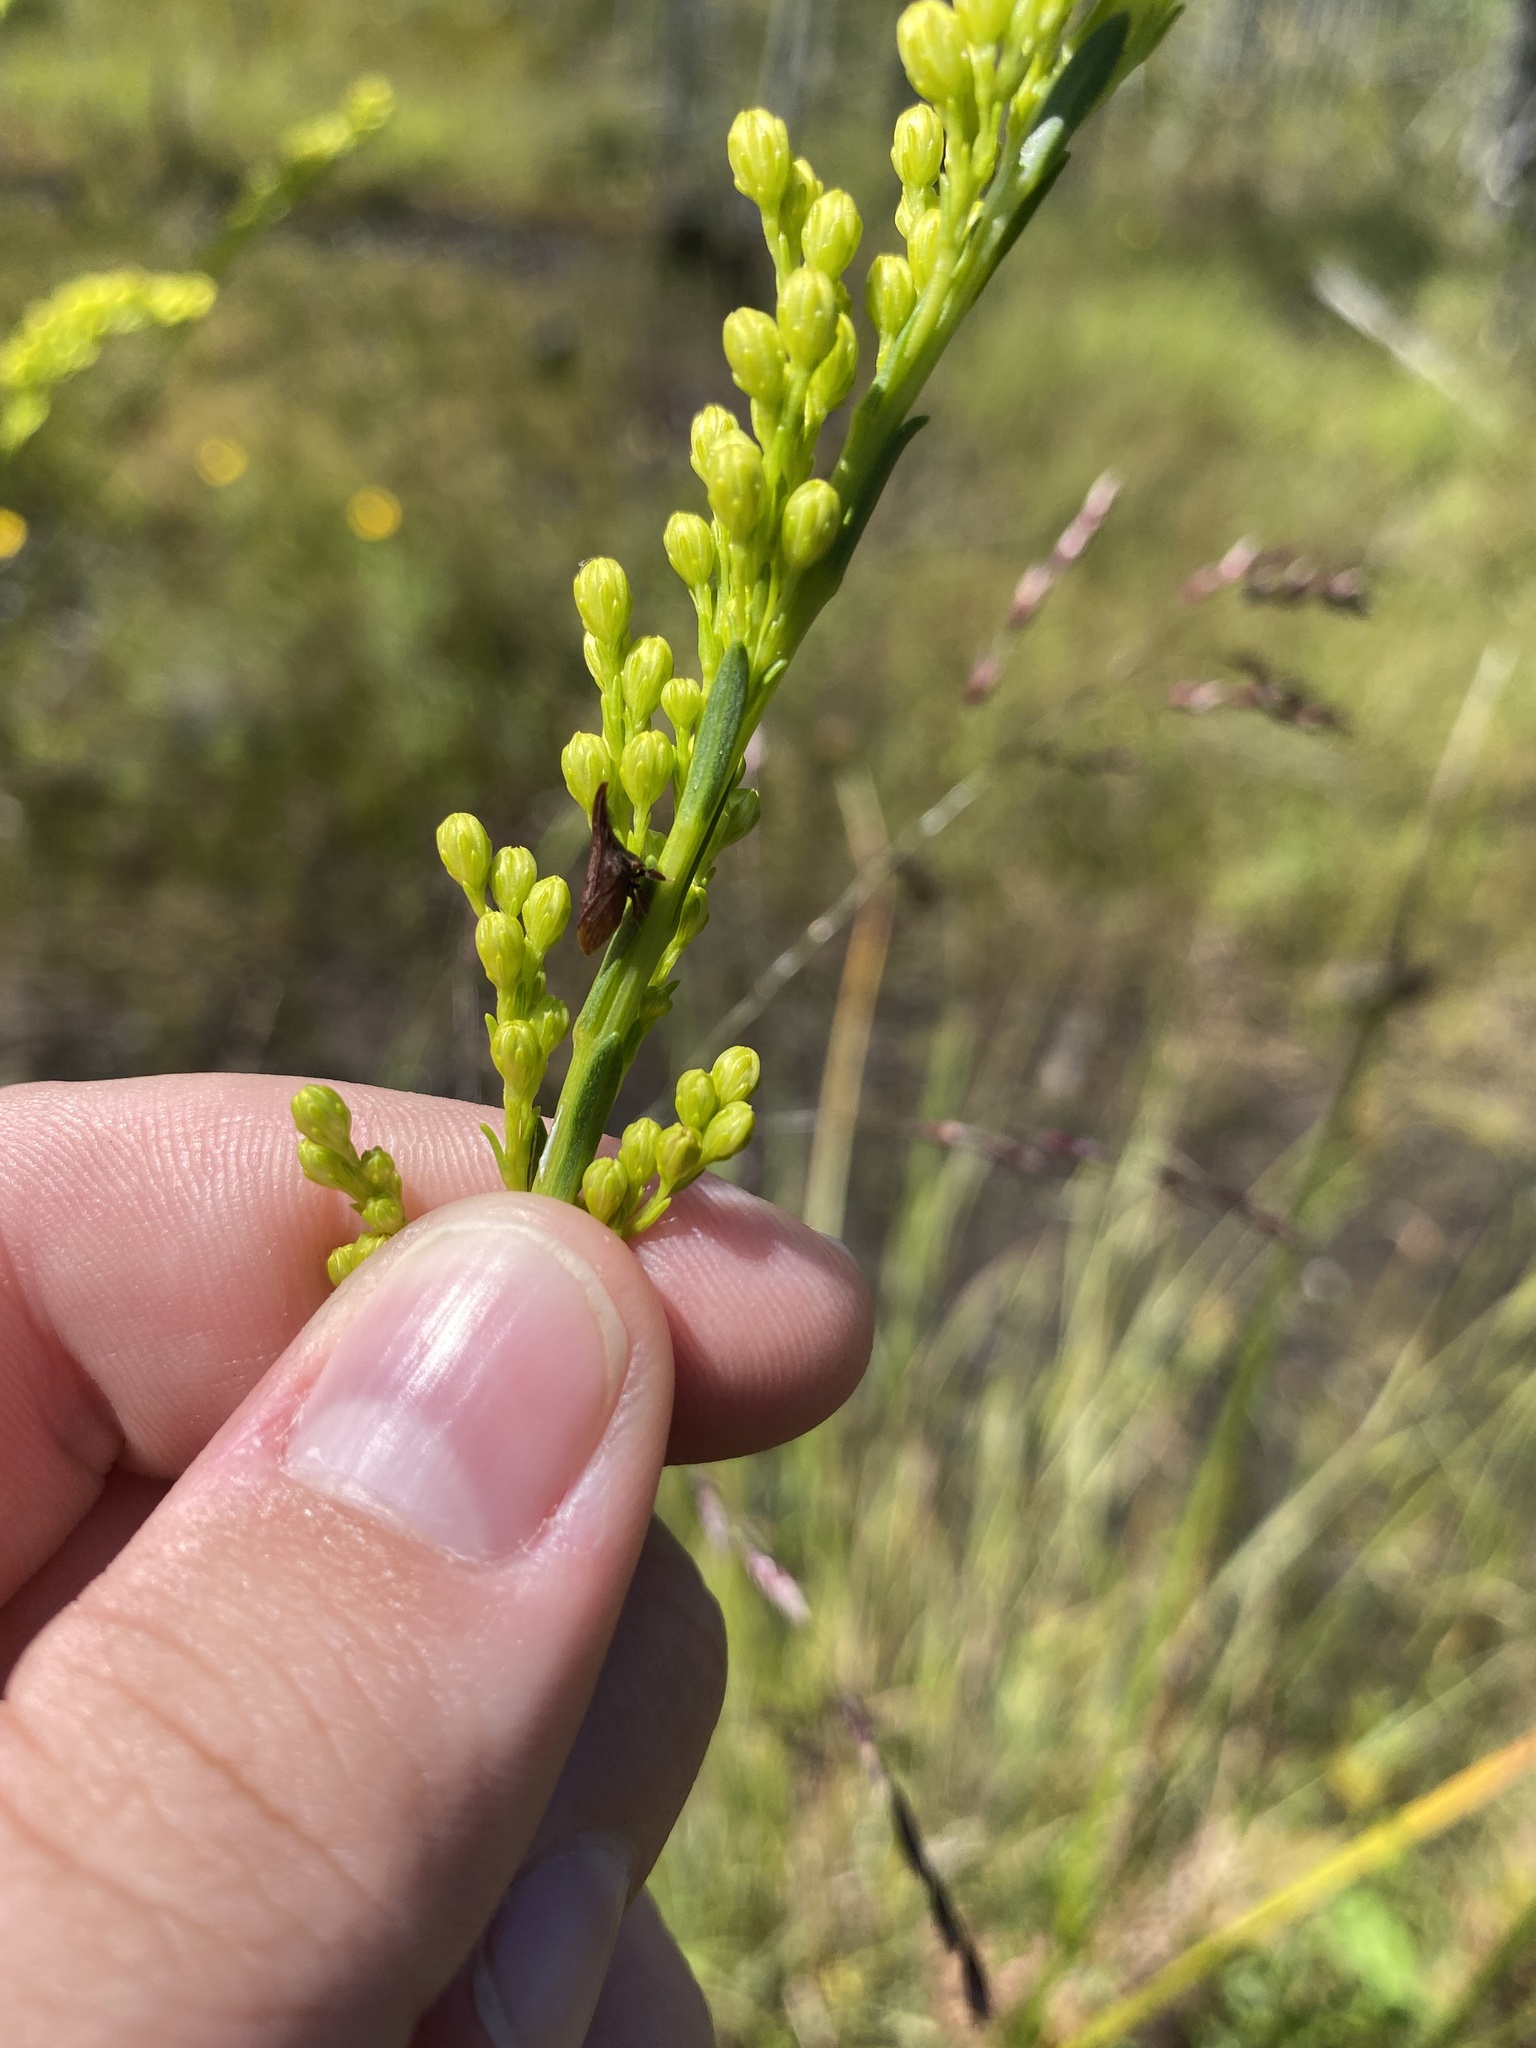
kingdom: Animalia
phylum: Arthropoda
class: Insecta
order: Hemiptera
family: Membracidae
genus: Enchenopa
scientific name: Enchenopa latipes
